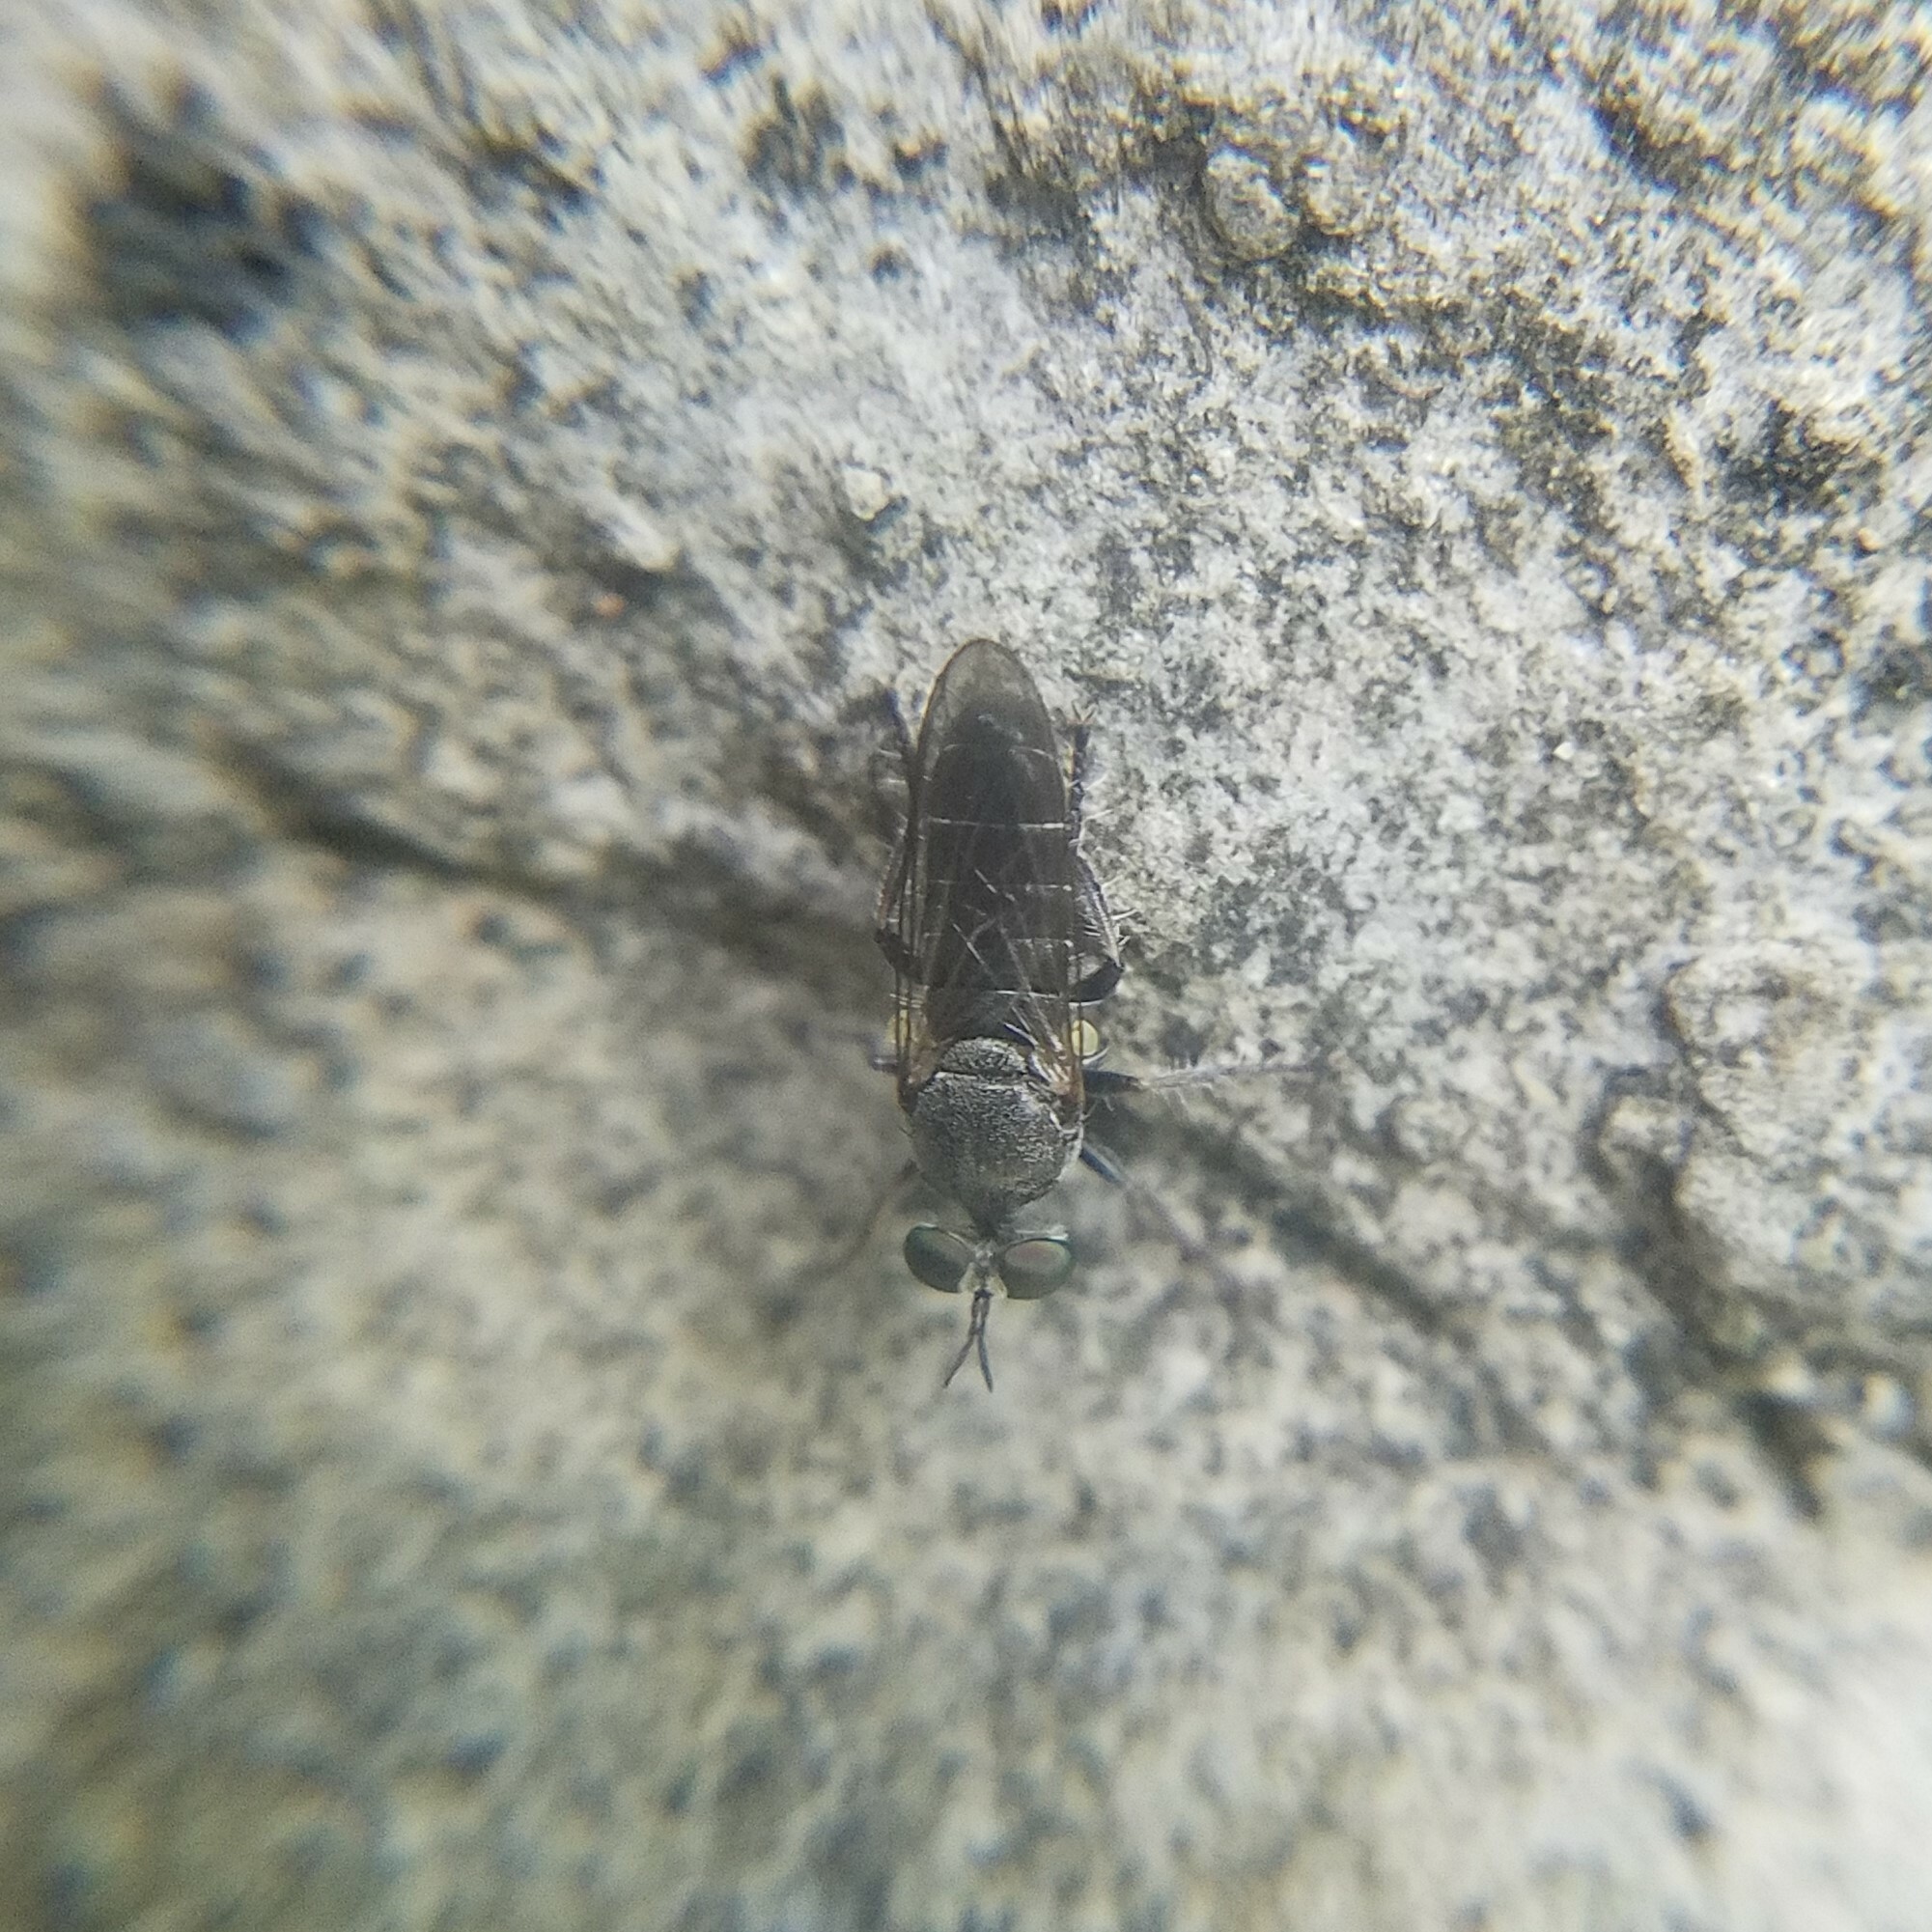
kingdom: Animalia
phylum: Arthropoda
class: Insecta
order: Diptera
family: Asilidae
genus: Atomosia
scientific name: Atomosia puella
